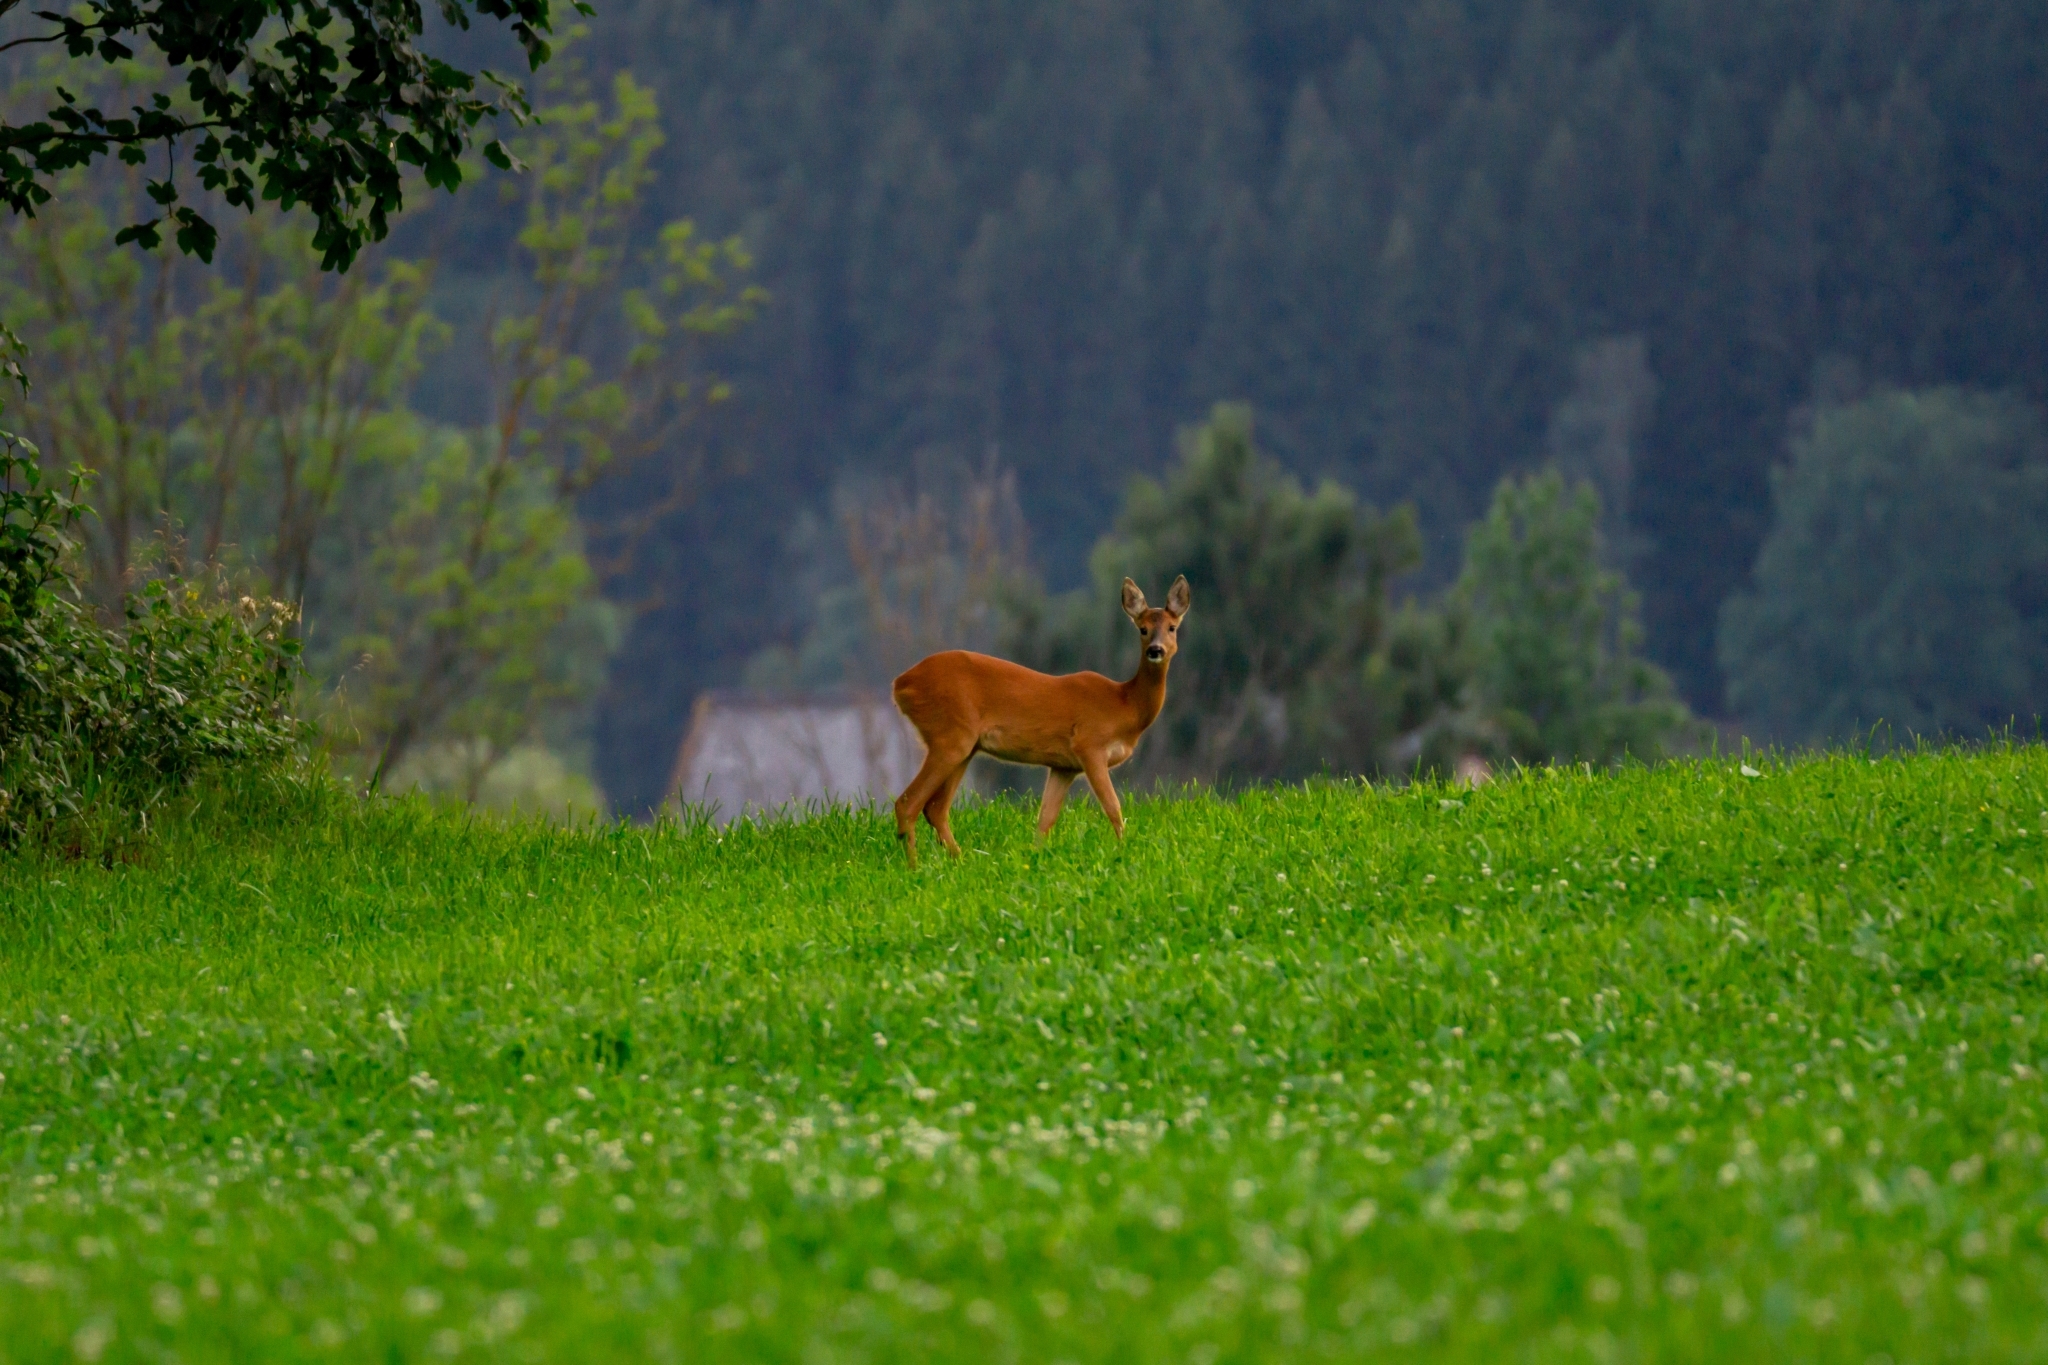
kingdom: Animalia
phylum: Chordata
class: Mammalia
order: Artiodactyla
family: Cervidae
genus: Capreolus
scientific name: Capreolus capreolus
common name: Western roe deer
